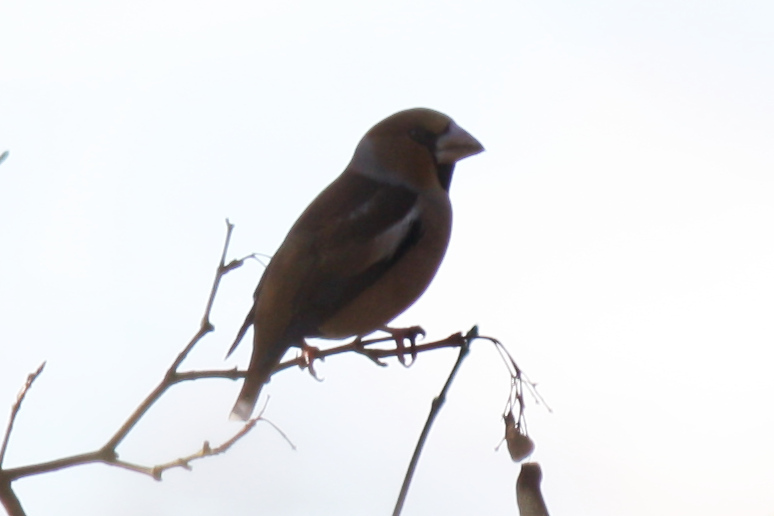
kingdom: Animalia
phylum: Chordata
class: Aves
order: Passeriformes
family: Fringillidae
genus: Coccothraustes
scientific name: Coccothraustes coccothraustes
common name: Hawfinch
